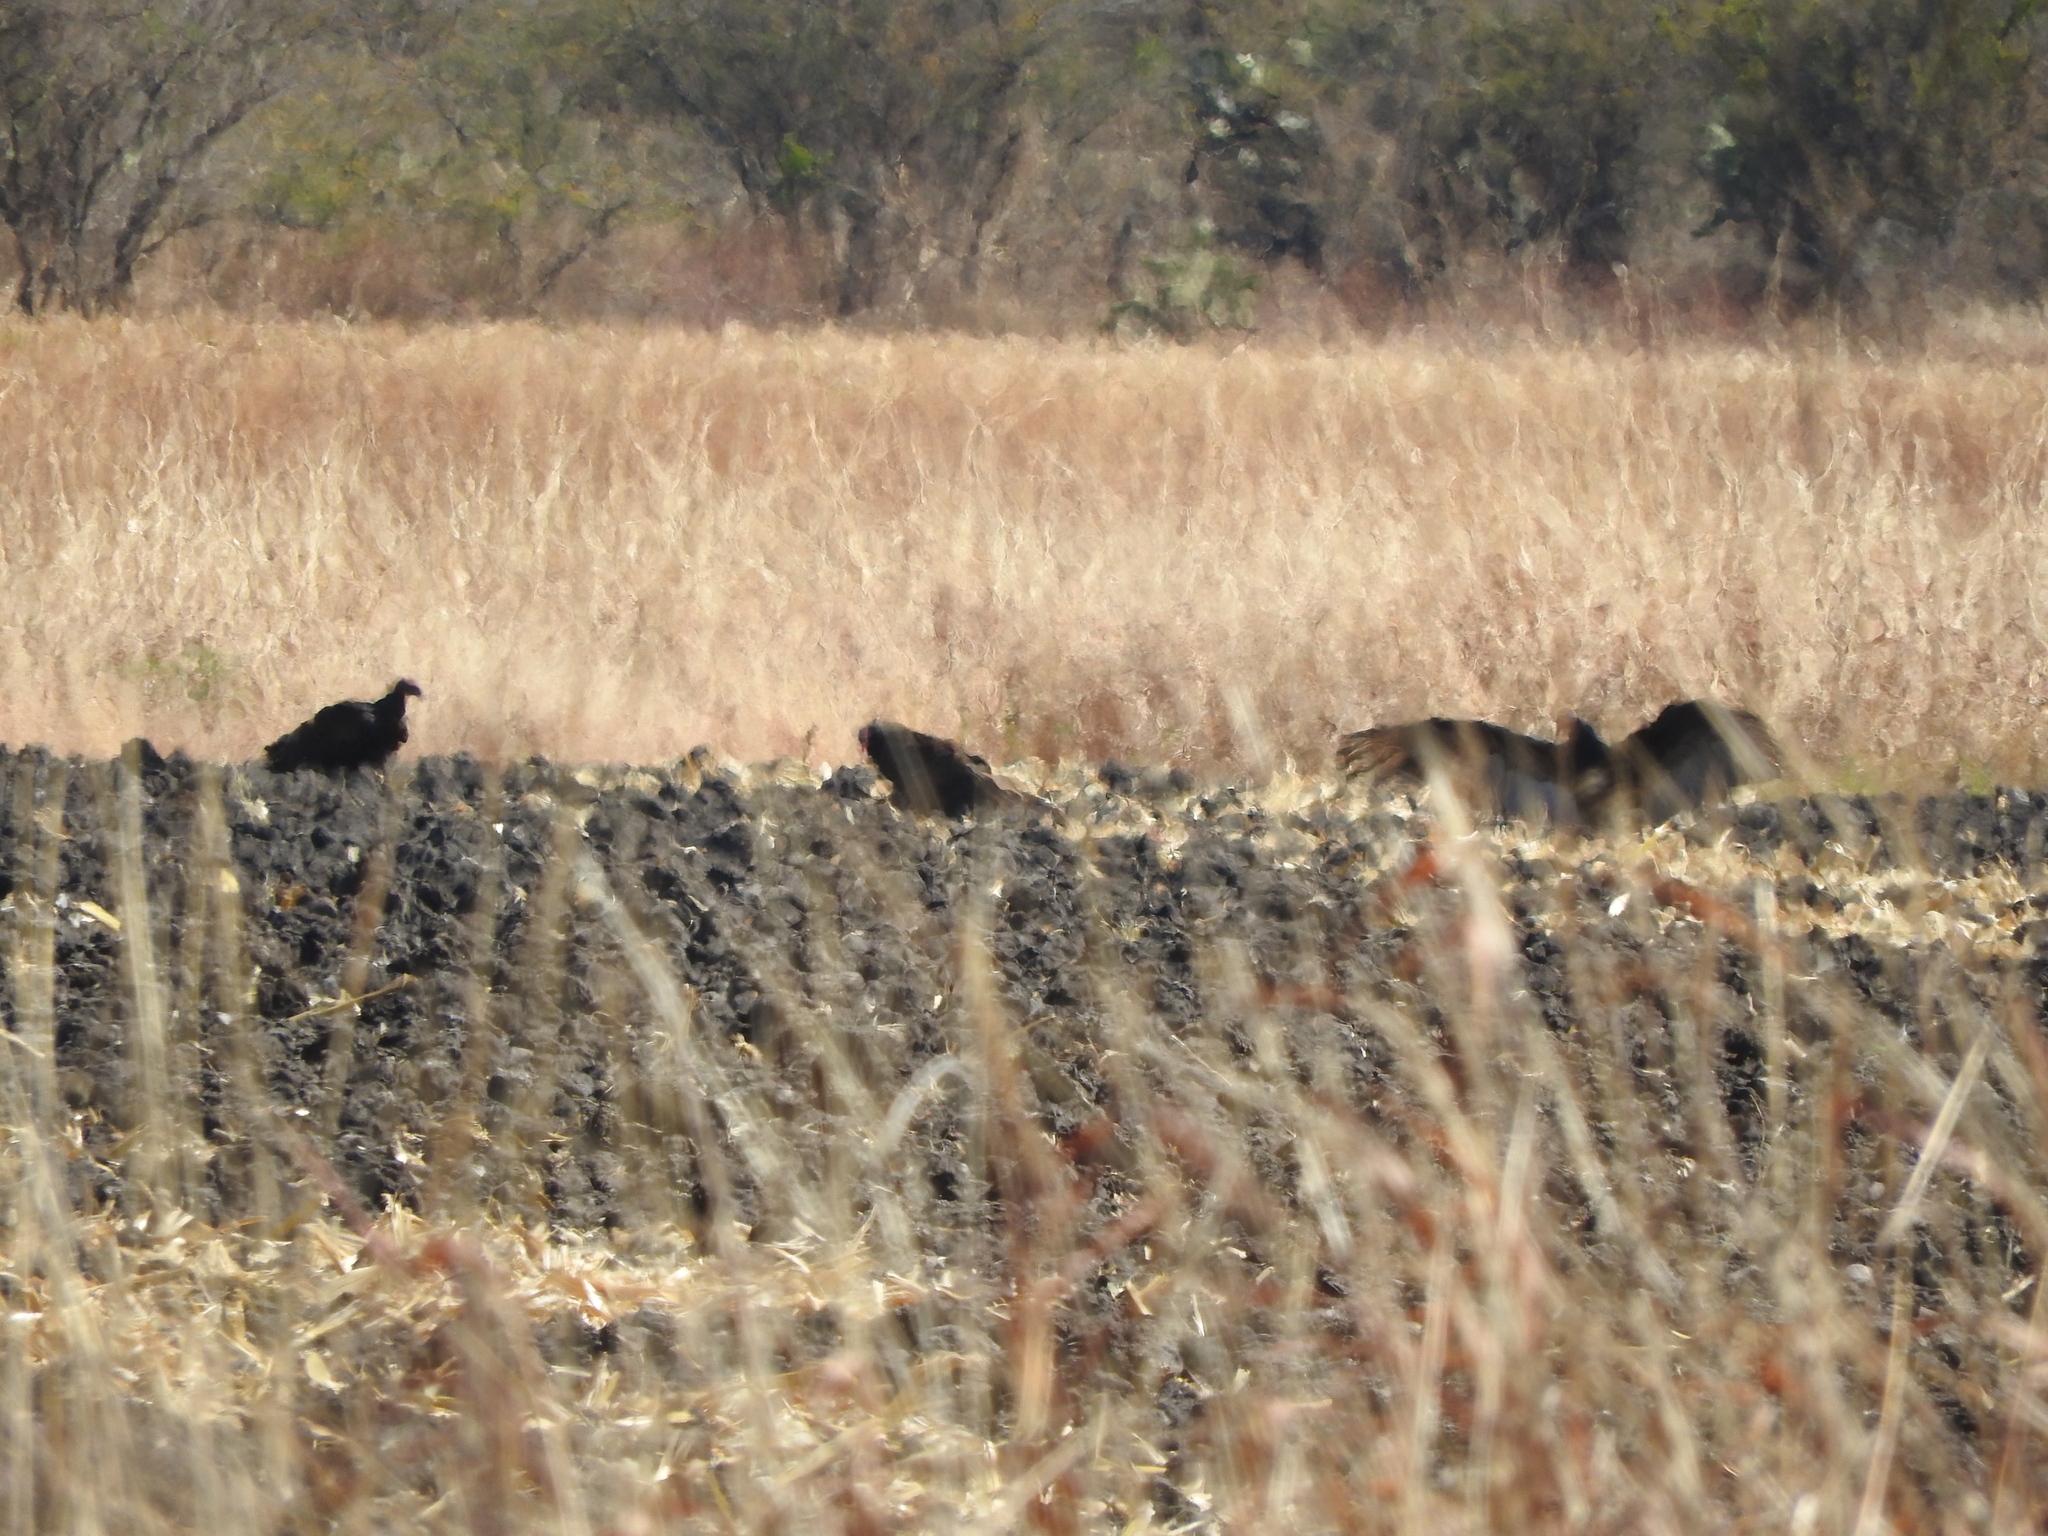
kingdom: Animalia
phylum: Chordata
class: Aves
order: Accipitriformes
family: Cathartidae
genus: Cathartes
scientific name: Cathartes aura
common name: Turkey vulture
